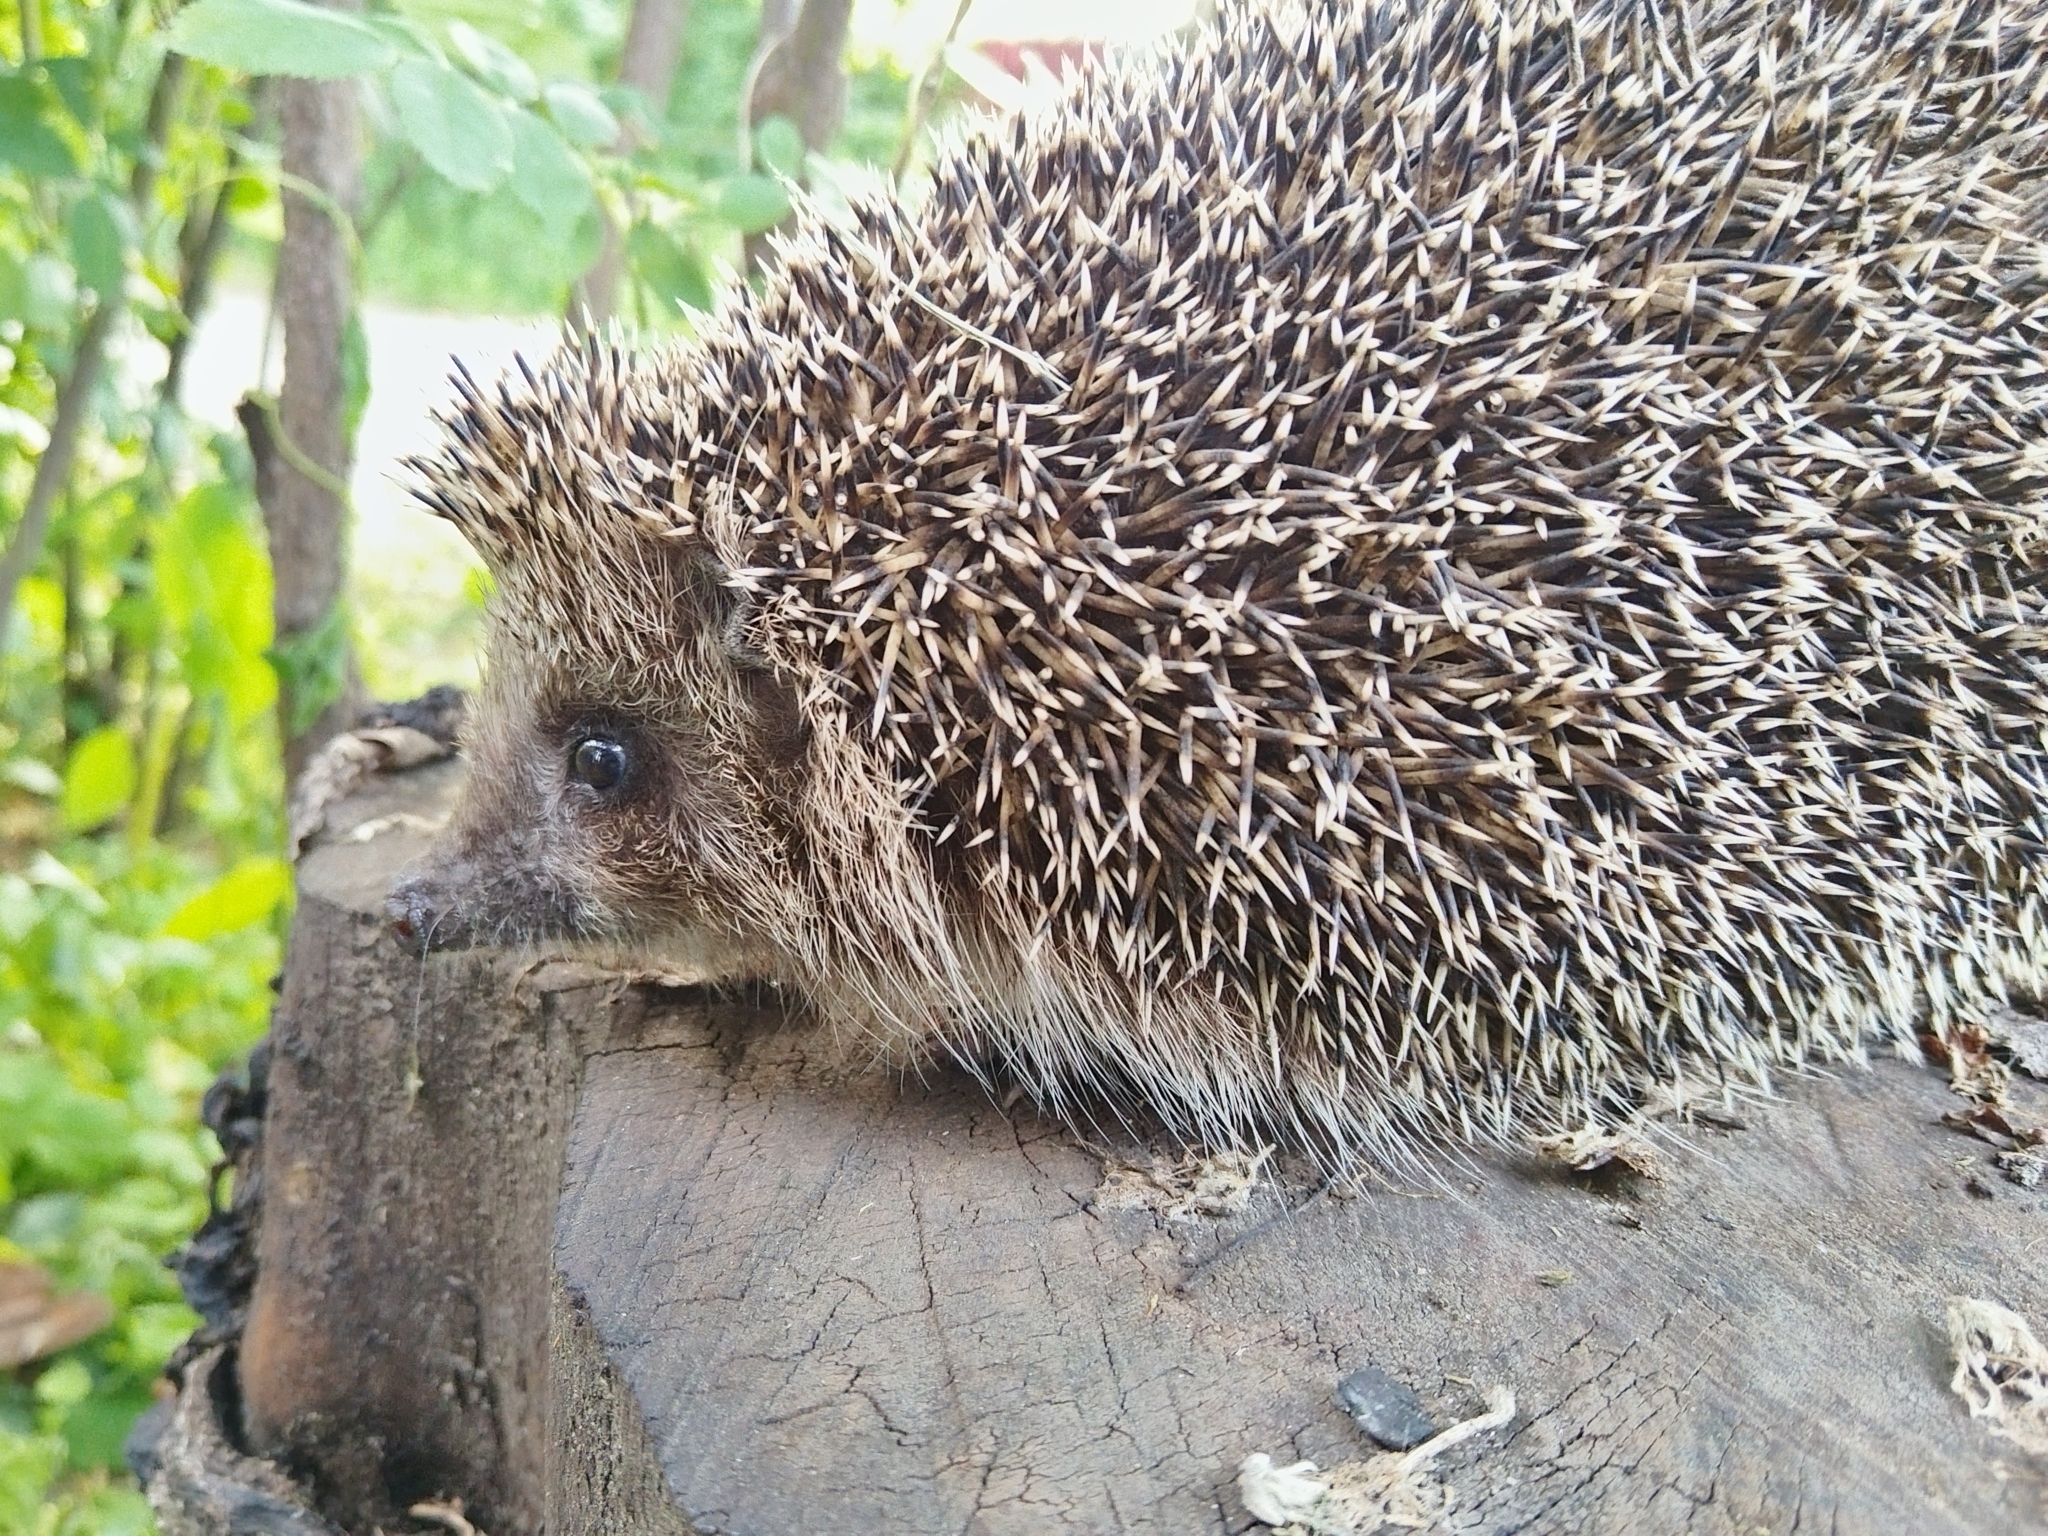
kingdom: Animalia
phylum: Chordata
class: Mammalia
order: Erinaceomorpha
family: Erinaceidae
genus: Erinaceus
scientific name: Erinaceus roumanicus
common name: Northern white-breasted hedgehog
